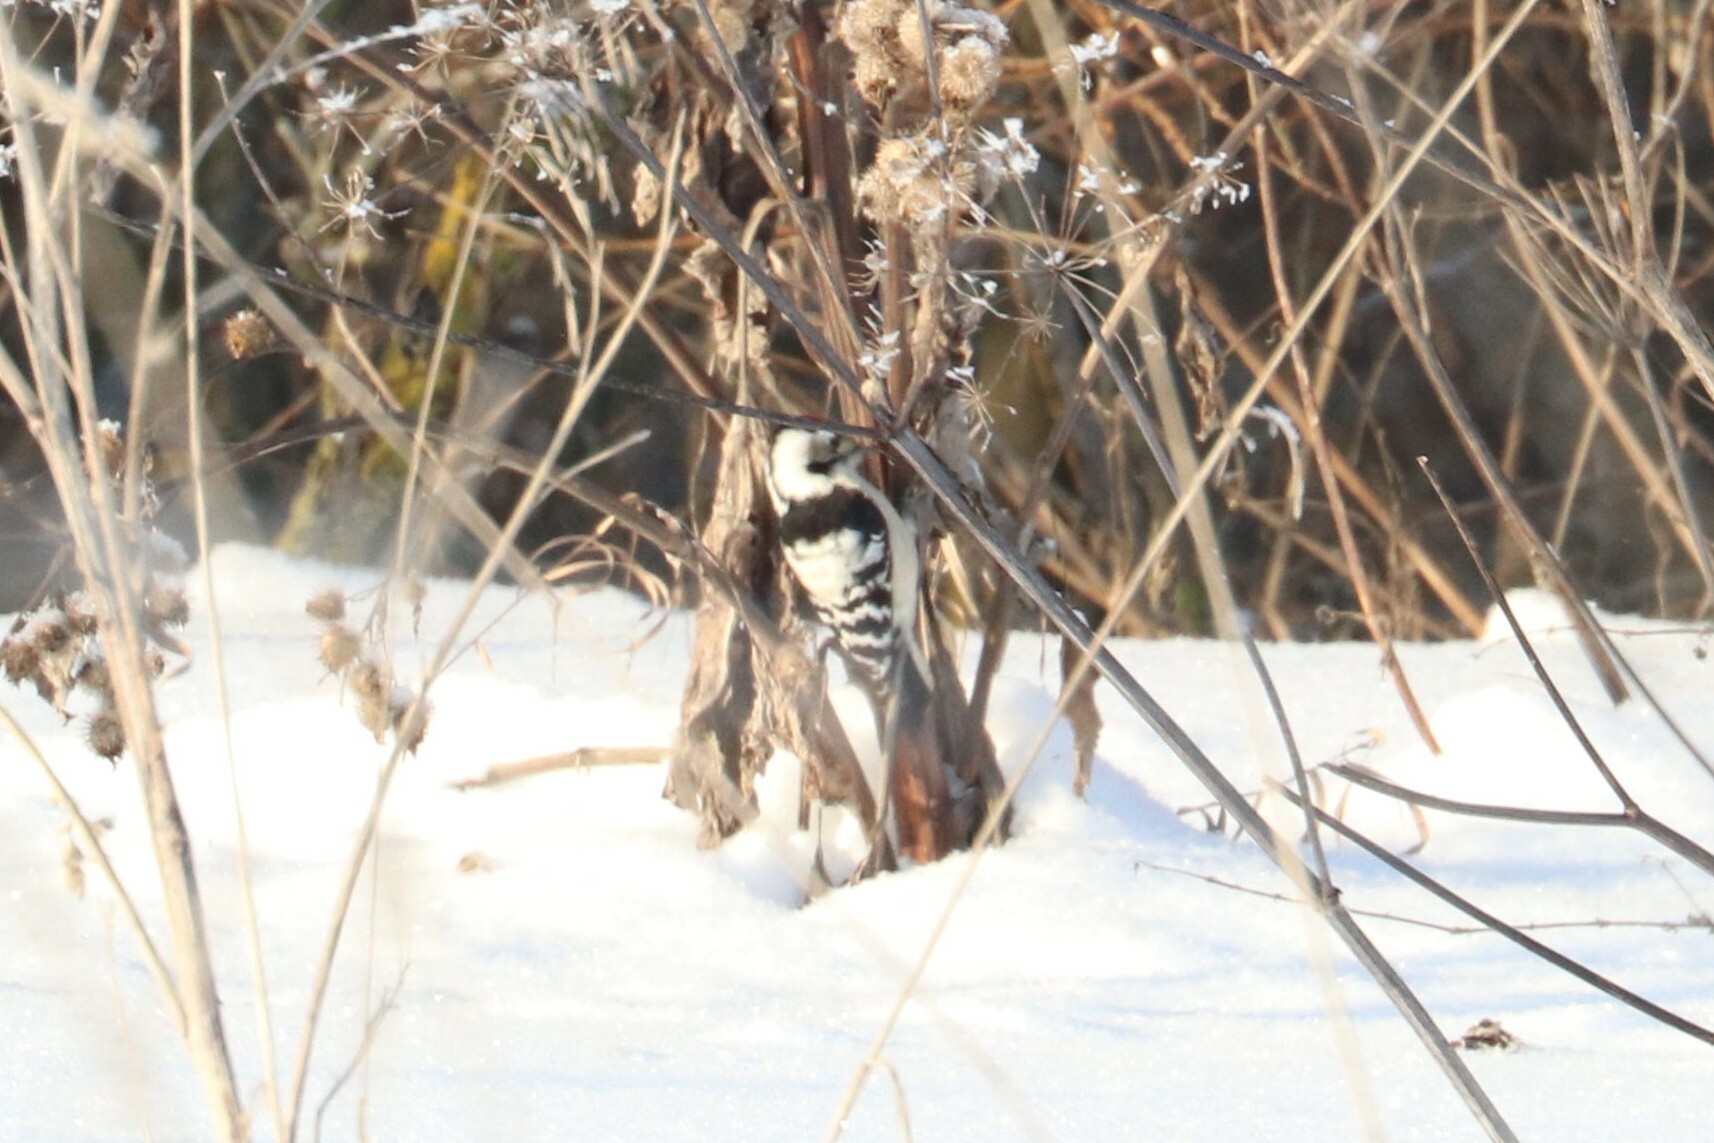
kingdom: Animalia
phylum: Chordata
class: Aves
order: Piciformes
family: Picidae
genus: Dryobates
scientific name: Dryobates minor
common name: Lesser spotted woodpecker
